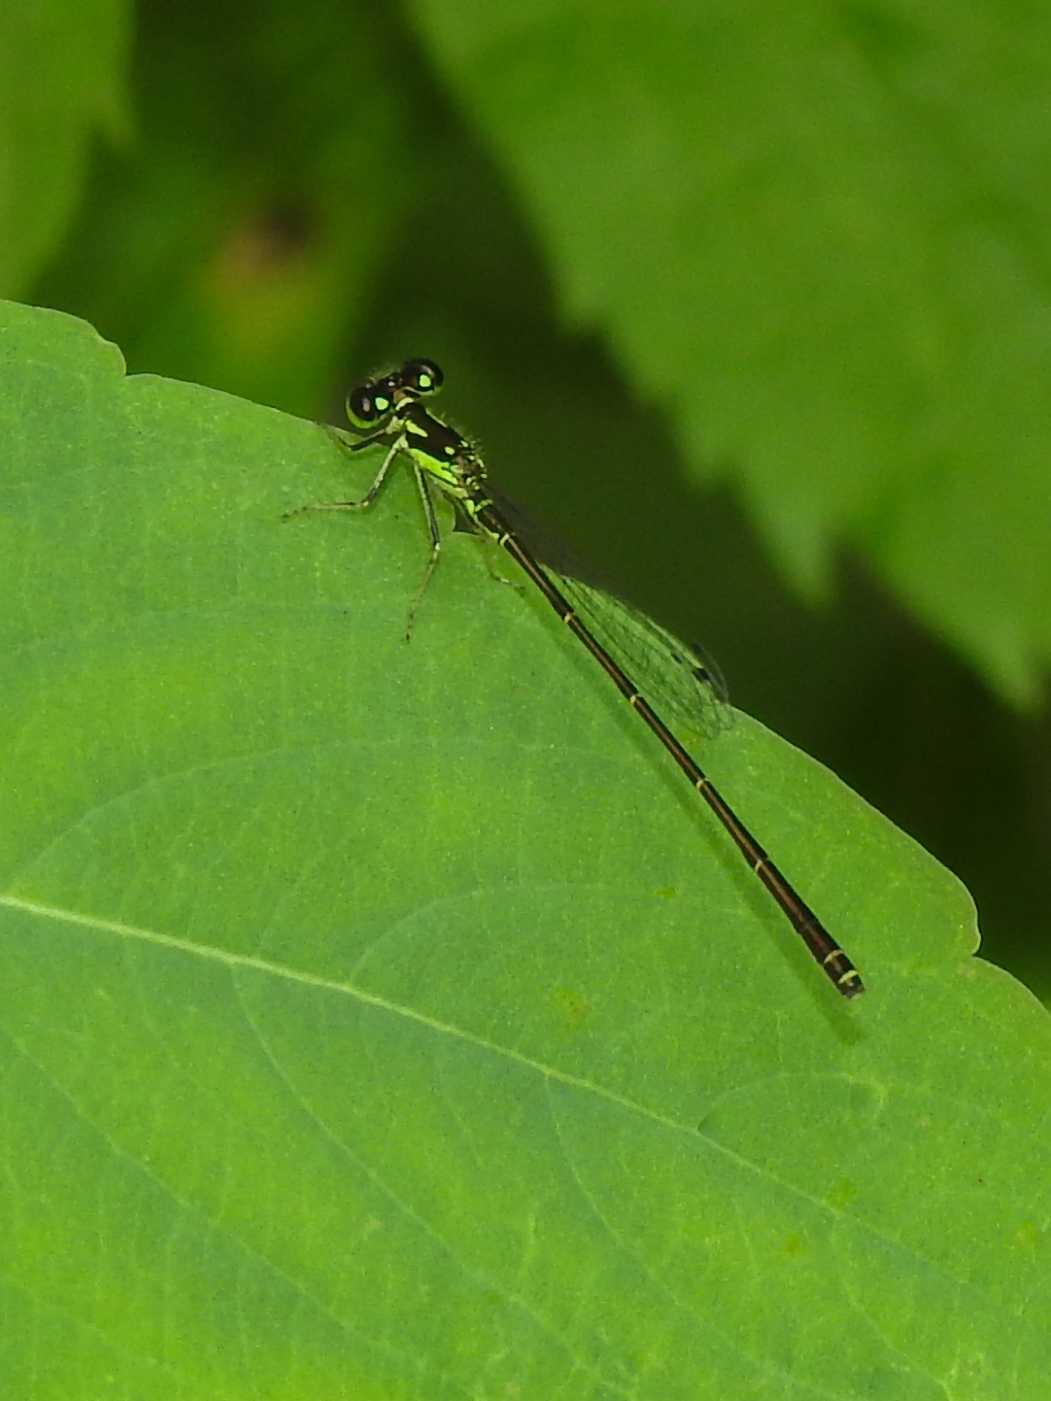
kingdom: Animalia
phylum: Arthropoda
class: Insecta
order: Odonata
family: Coenagrionidae
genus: Ischnura
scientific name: Ischnura posita
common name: Fragile forktail
